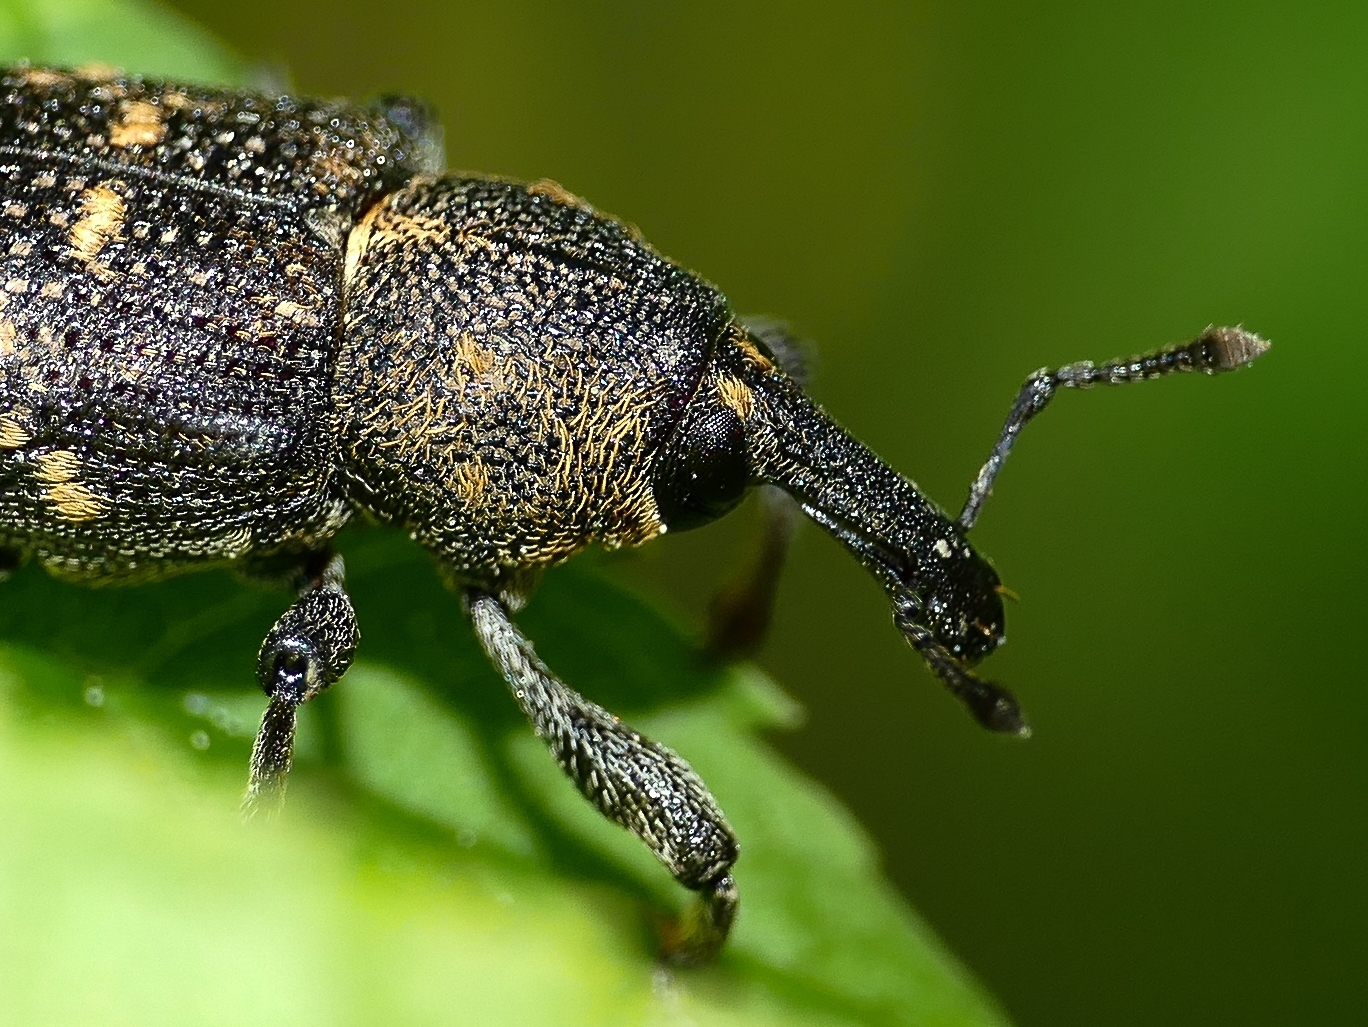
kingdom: Animalia
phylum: Arthropoda
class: Insecta
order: Coleoptera
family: Curculionidae
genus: Hylobius
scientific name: Hylobius abietis
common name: Large pine weevil
